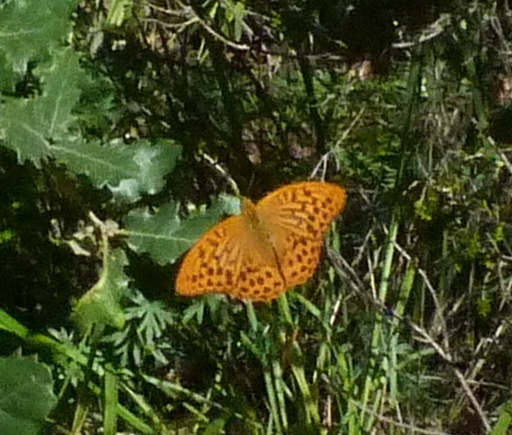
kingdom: Animalia
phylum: Arthropoda
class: Insecta
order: Lepidoptera
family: Nymphalidae
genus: Argynnis
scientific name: Argynnis paphia
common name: Silver-washed fritillary
